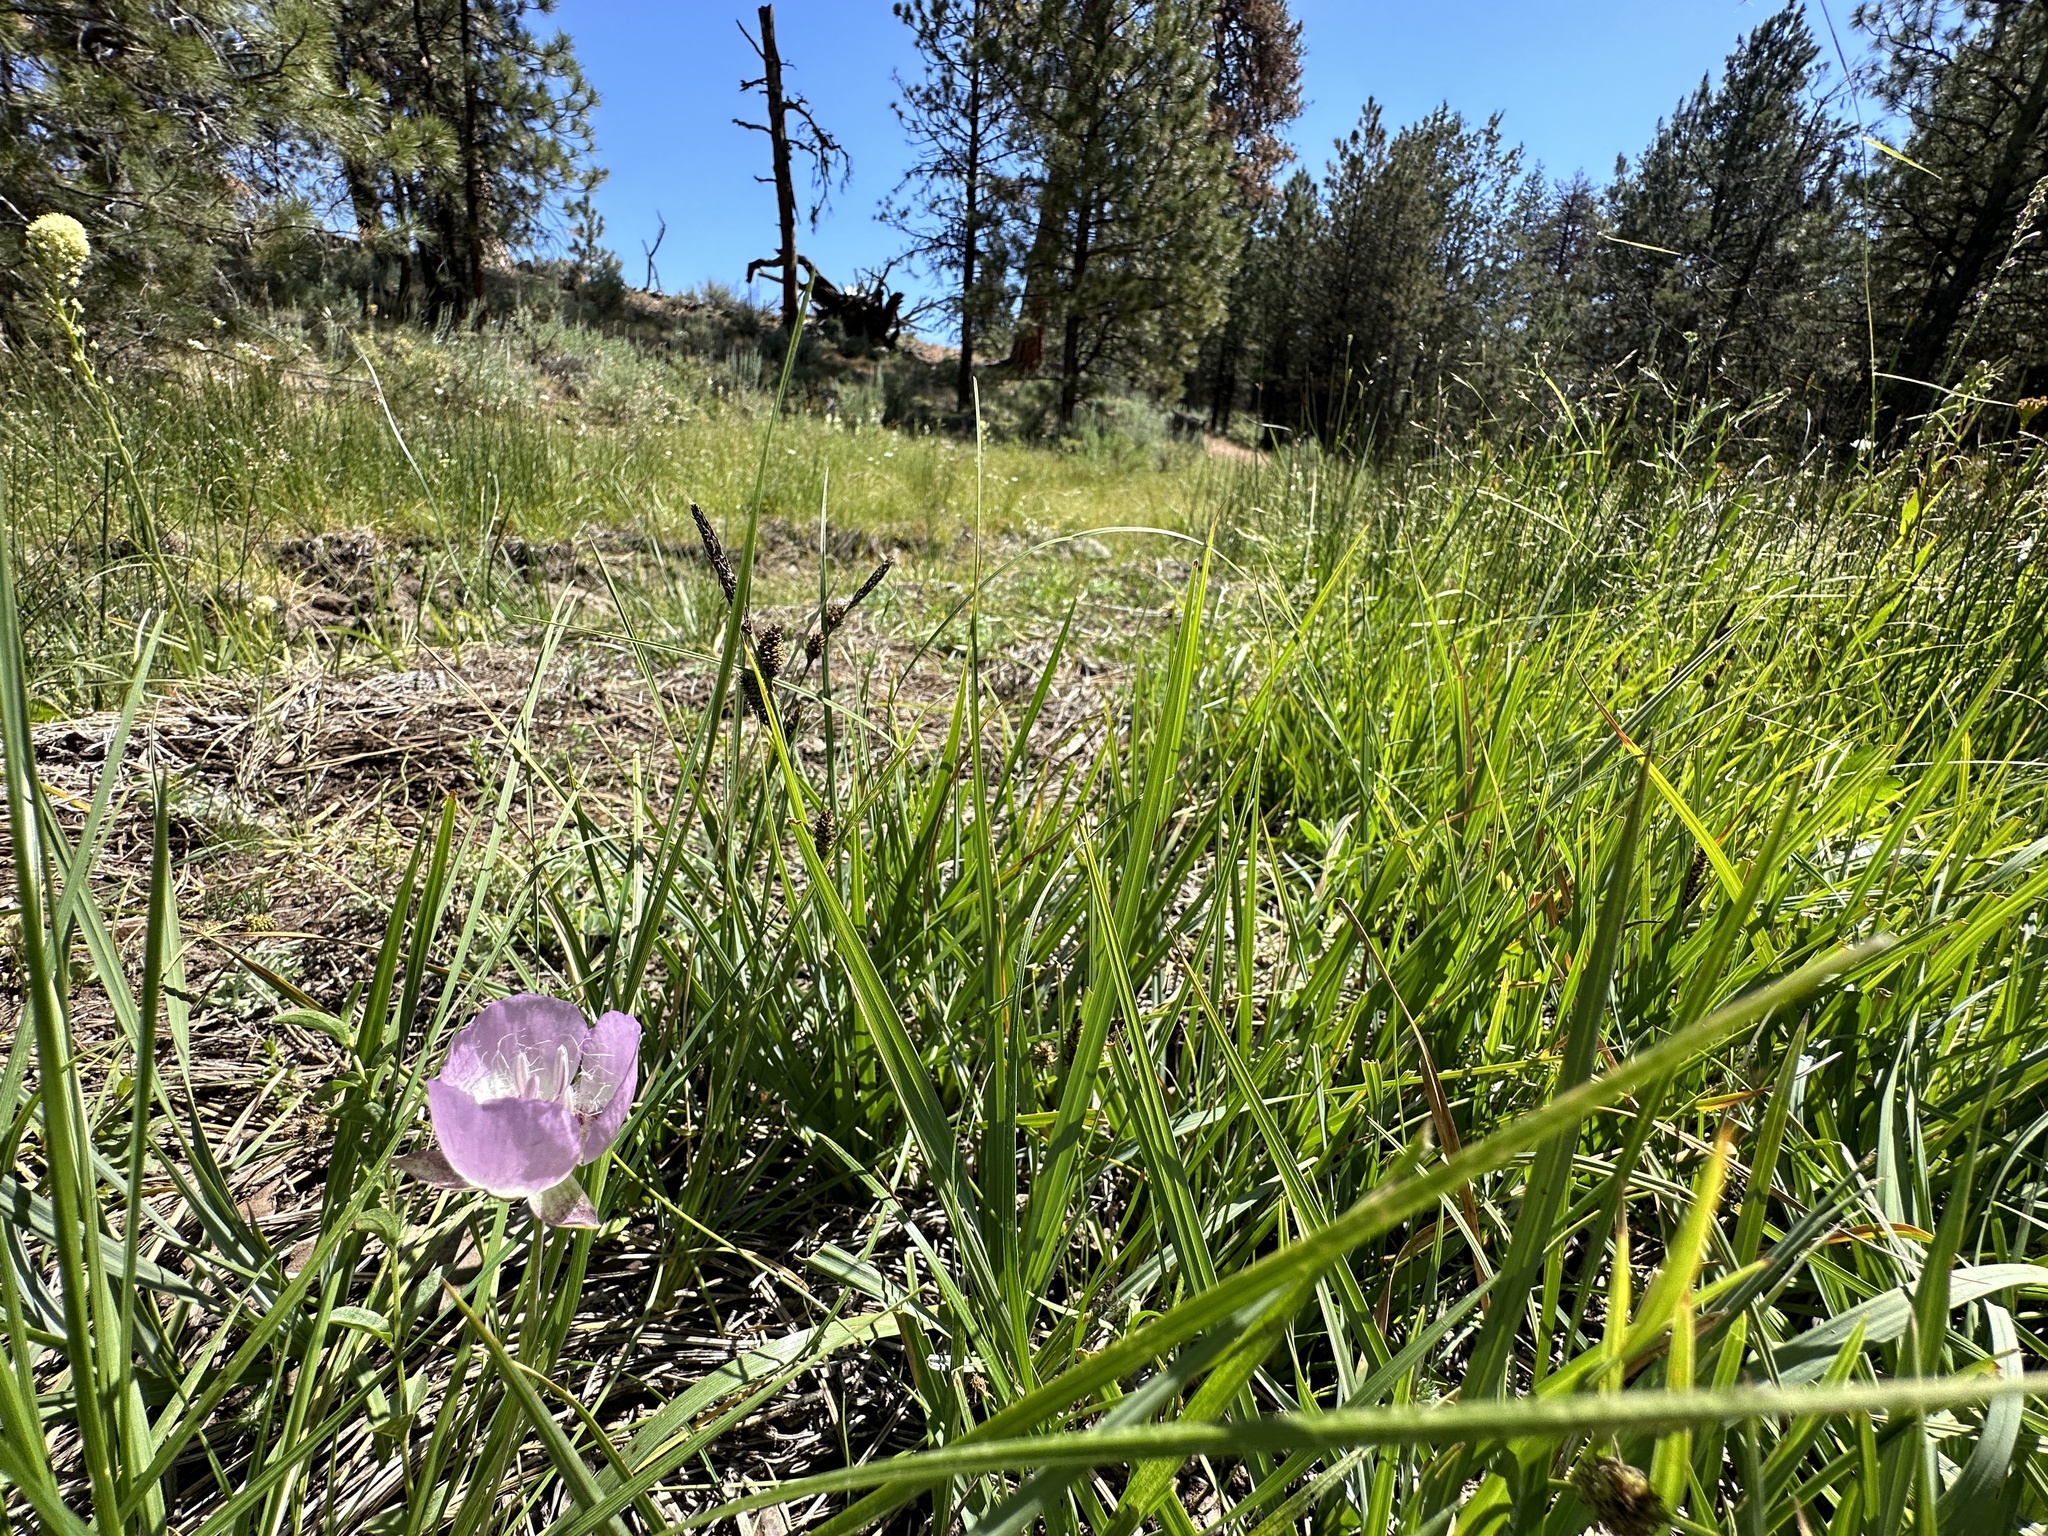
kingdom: Plantae
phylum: Tracheophyta
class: Liliopsida
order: Liliales
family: Liliaceae
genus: Calochortus
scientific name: Calochortus longibarbatus
